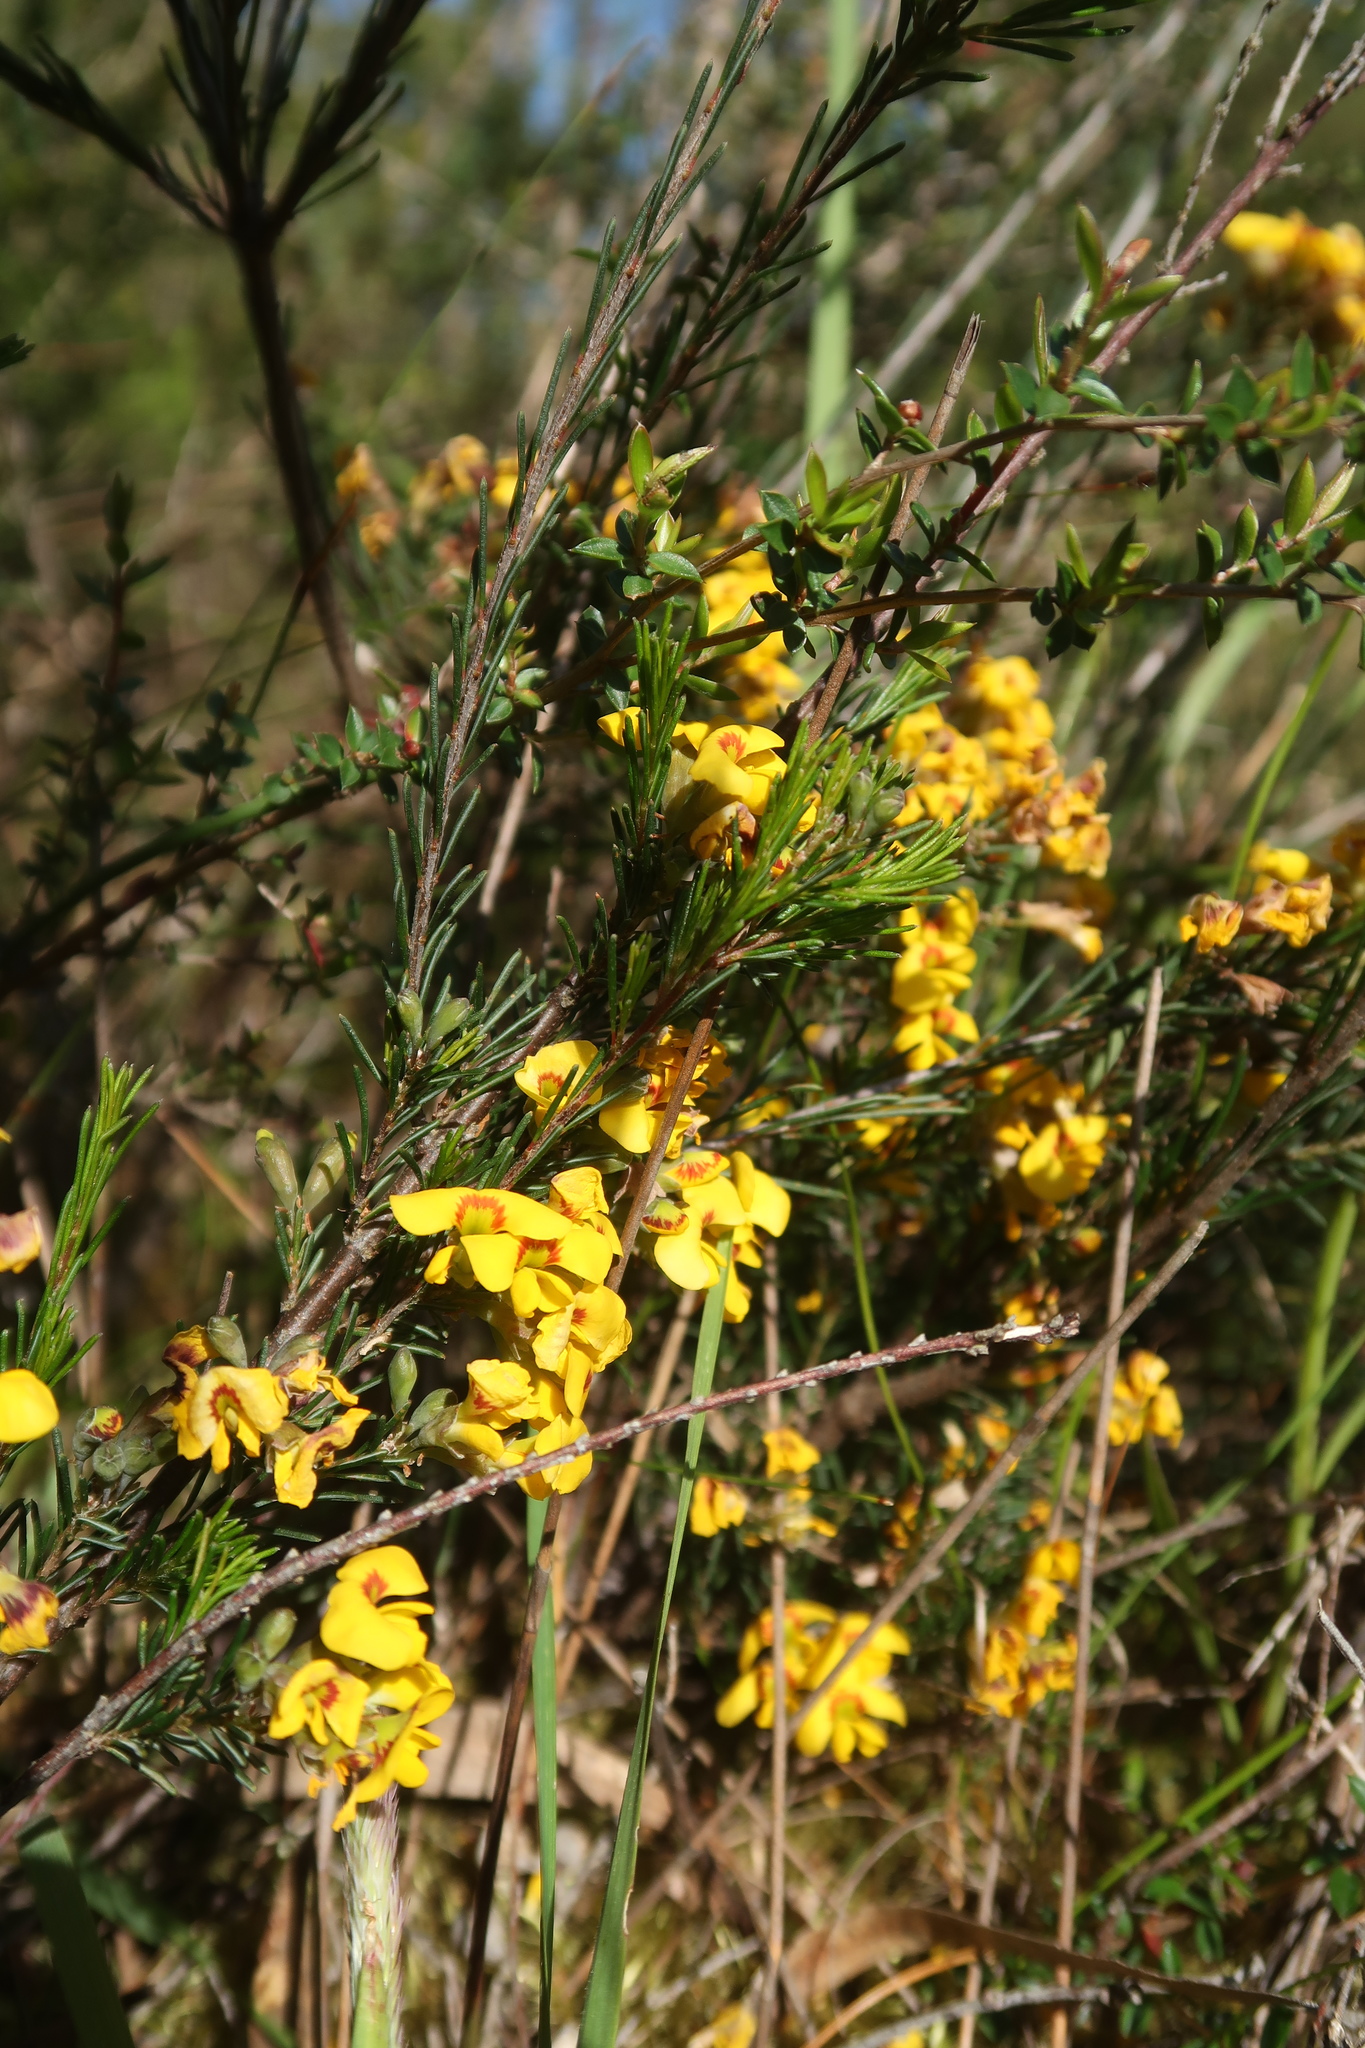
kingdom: Plantae
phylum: Tracheophyta
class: Magnoliopsida
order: Fabales
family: Fabaceae
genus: Dillwynia
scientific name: Dillwynia glaberrima
